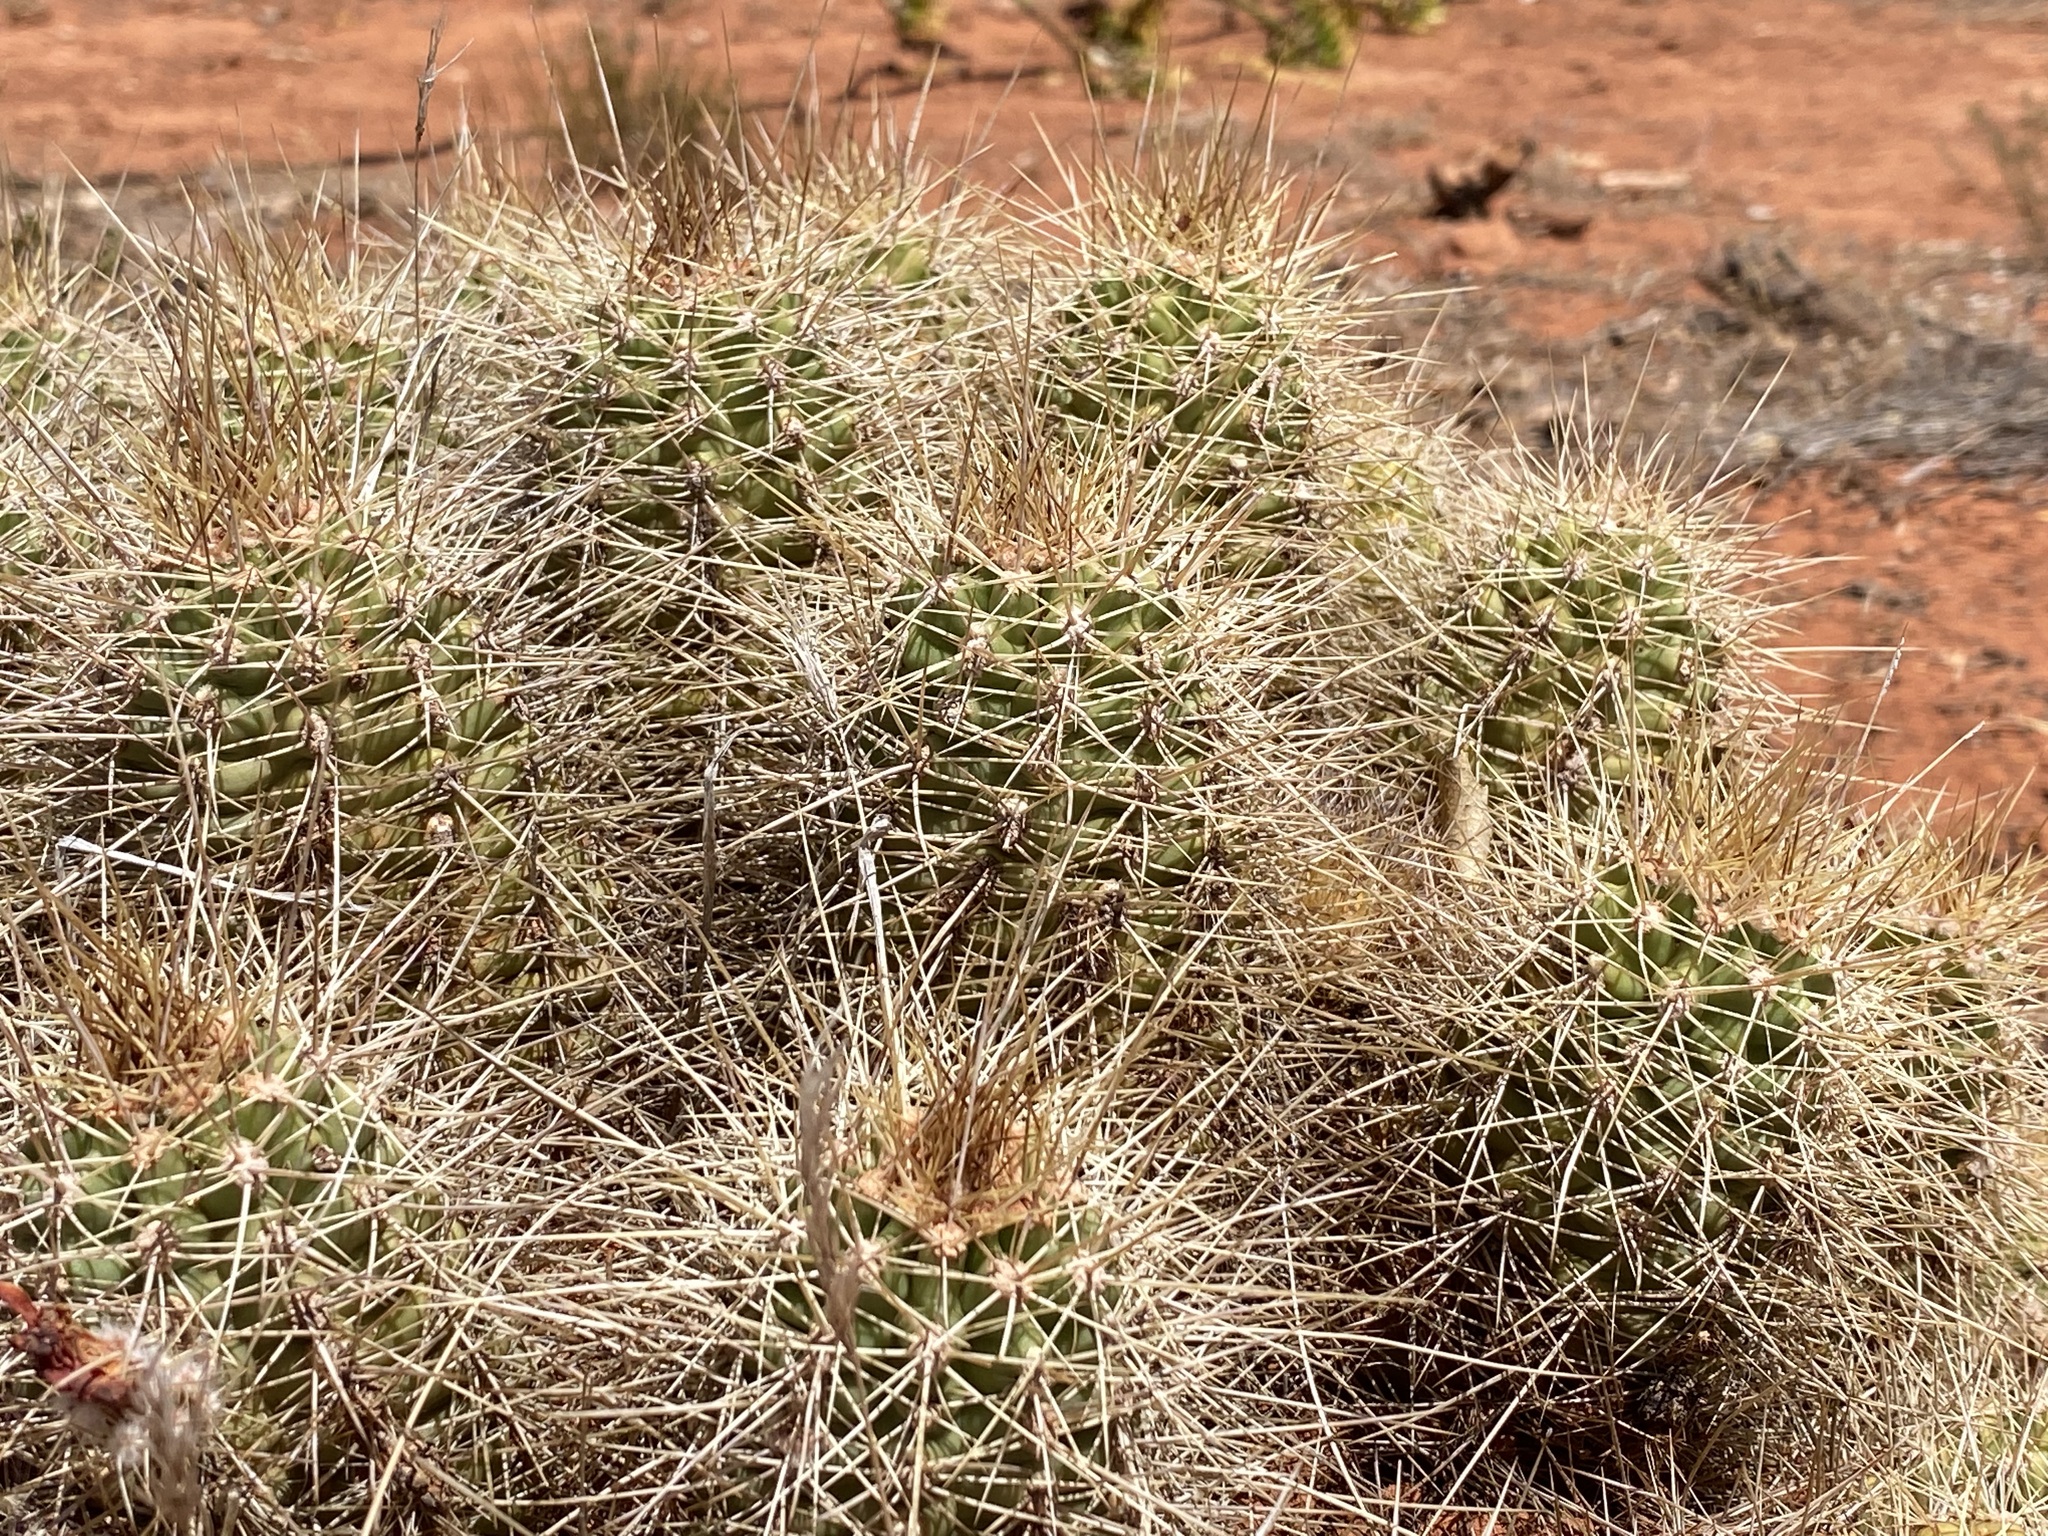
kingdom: Plantae
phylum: Tracheophyta
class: Magnoliopsida
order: Caryophyllales
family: Cactaceae
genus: Echinocereus
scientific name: Echinocereus bakeri
